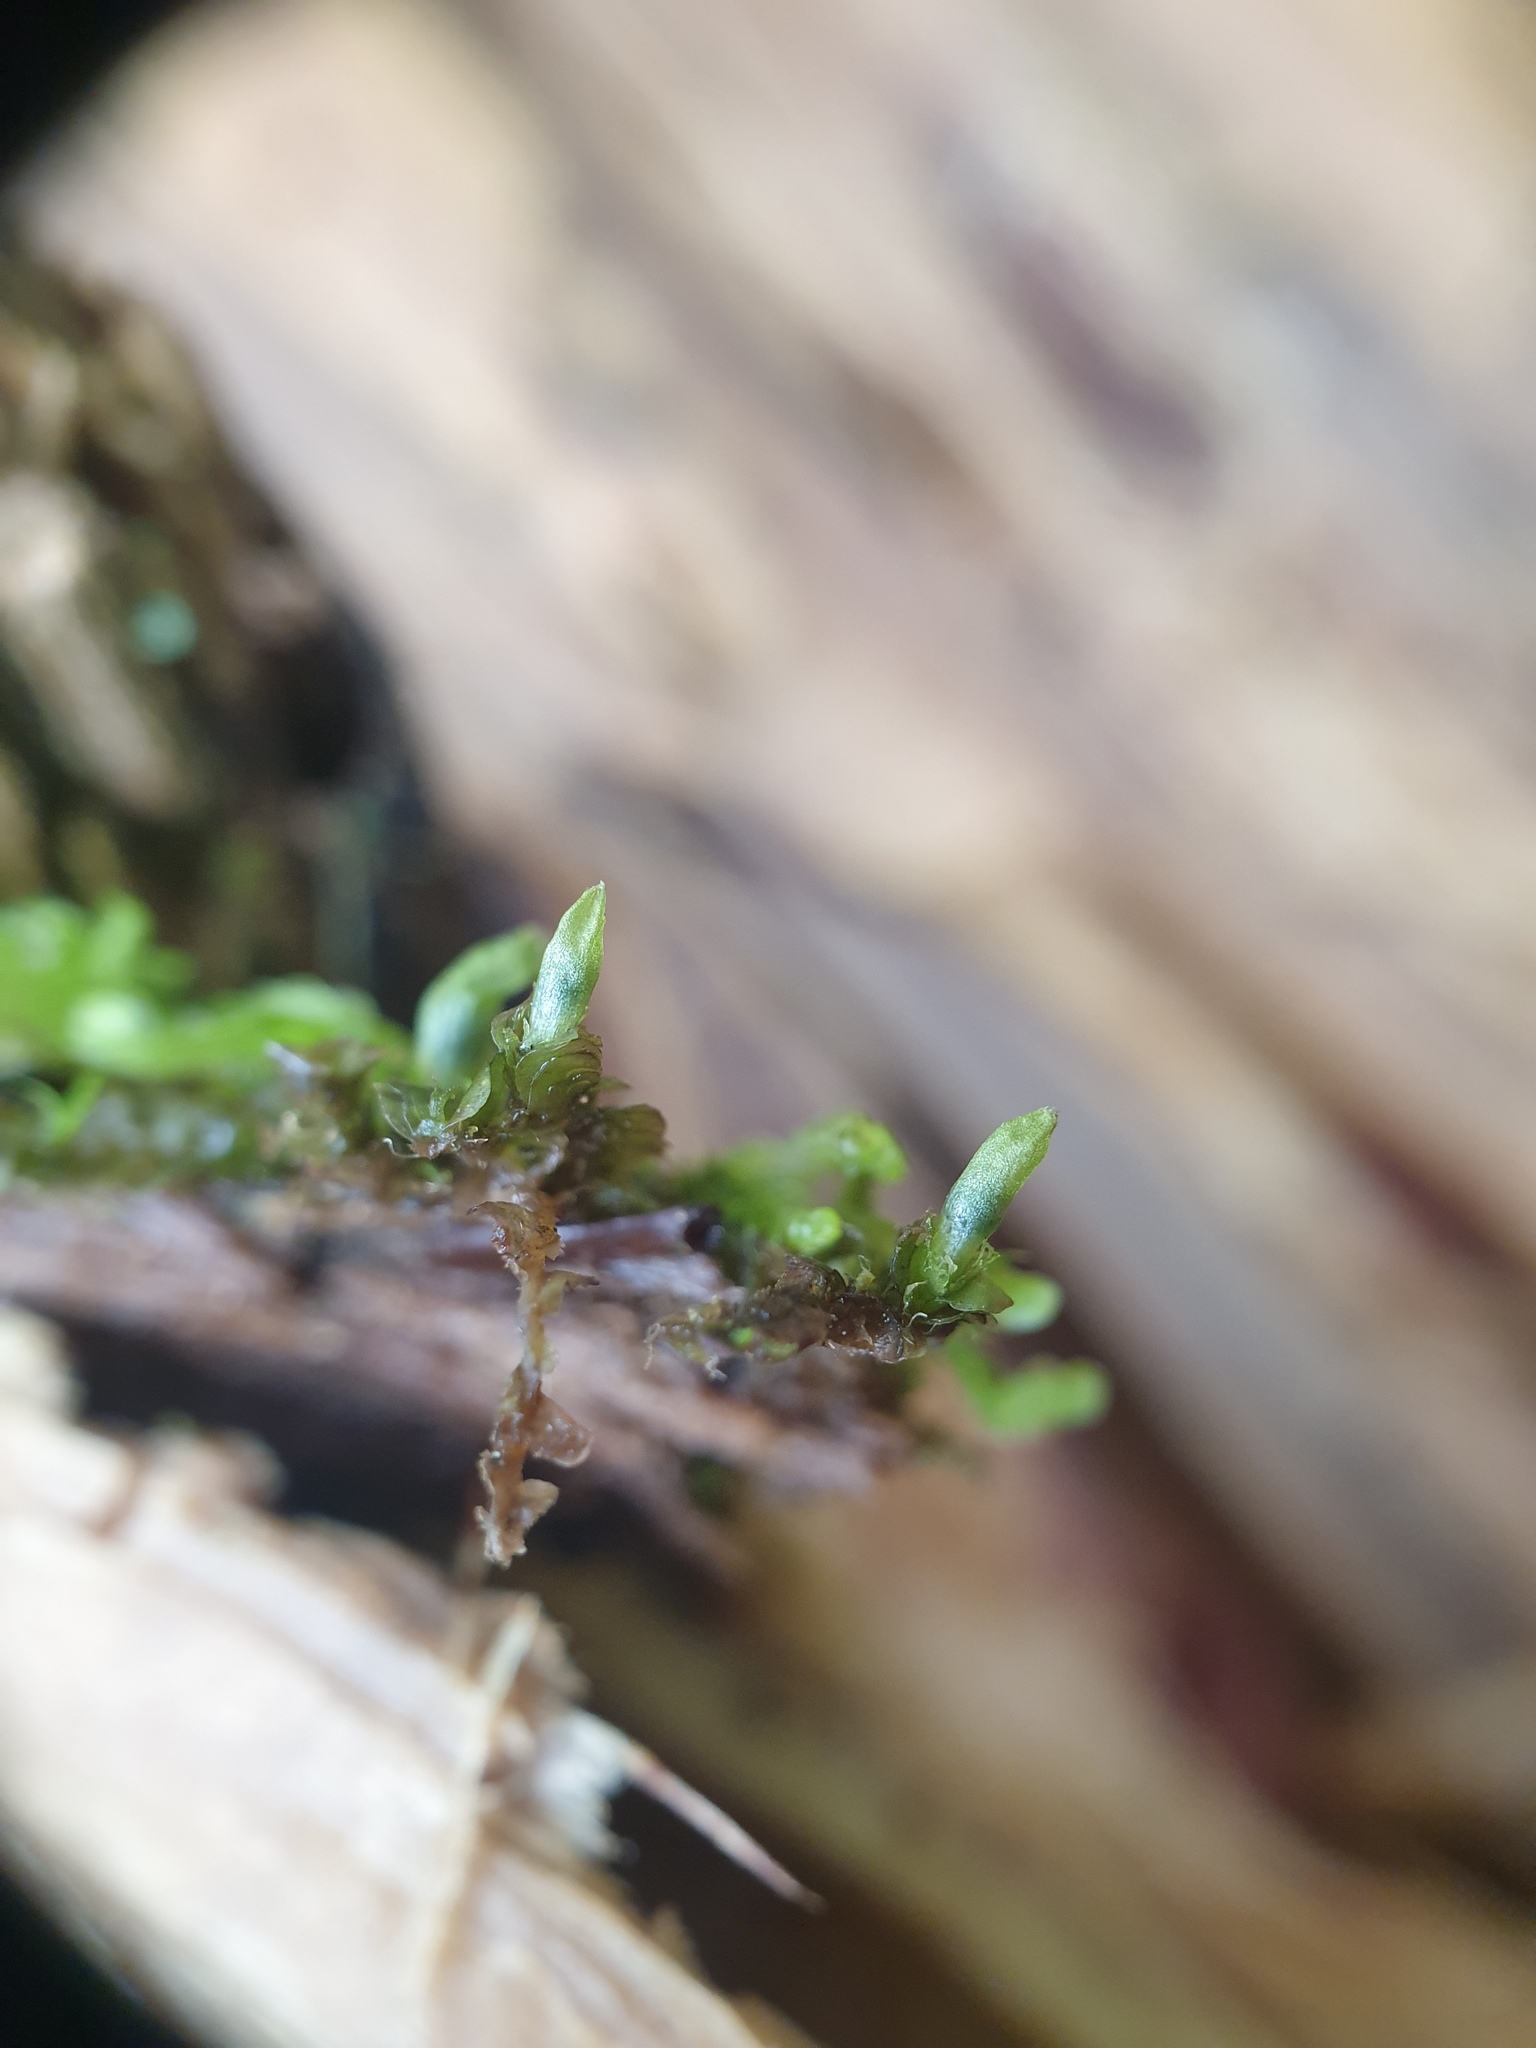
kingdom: Plantae
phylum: Marchantiophyta
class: Jungermanniopsida
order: Jungermanniales
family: Adelanthaceae
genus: Syzygiella
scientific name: Syzygiella autumnalis
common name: Jameson's liverwort
